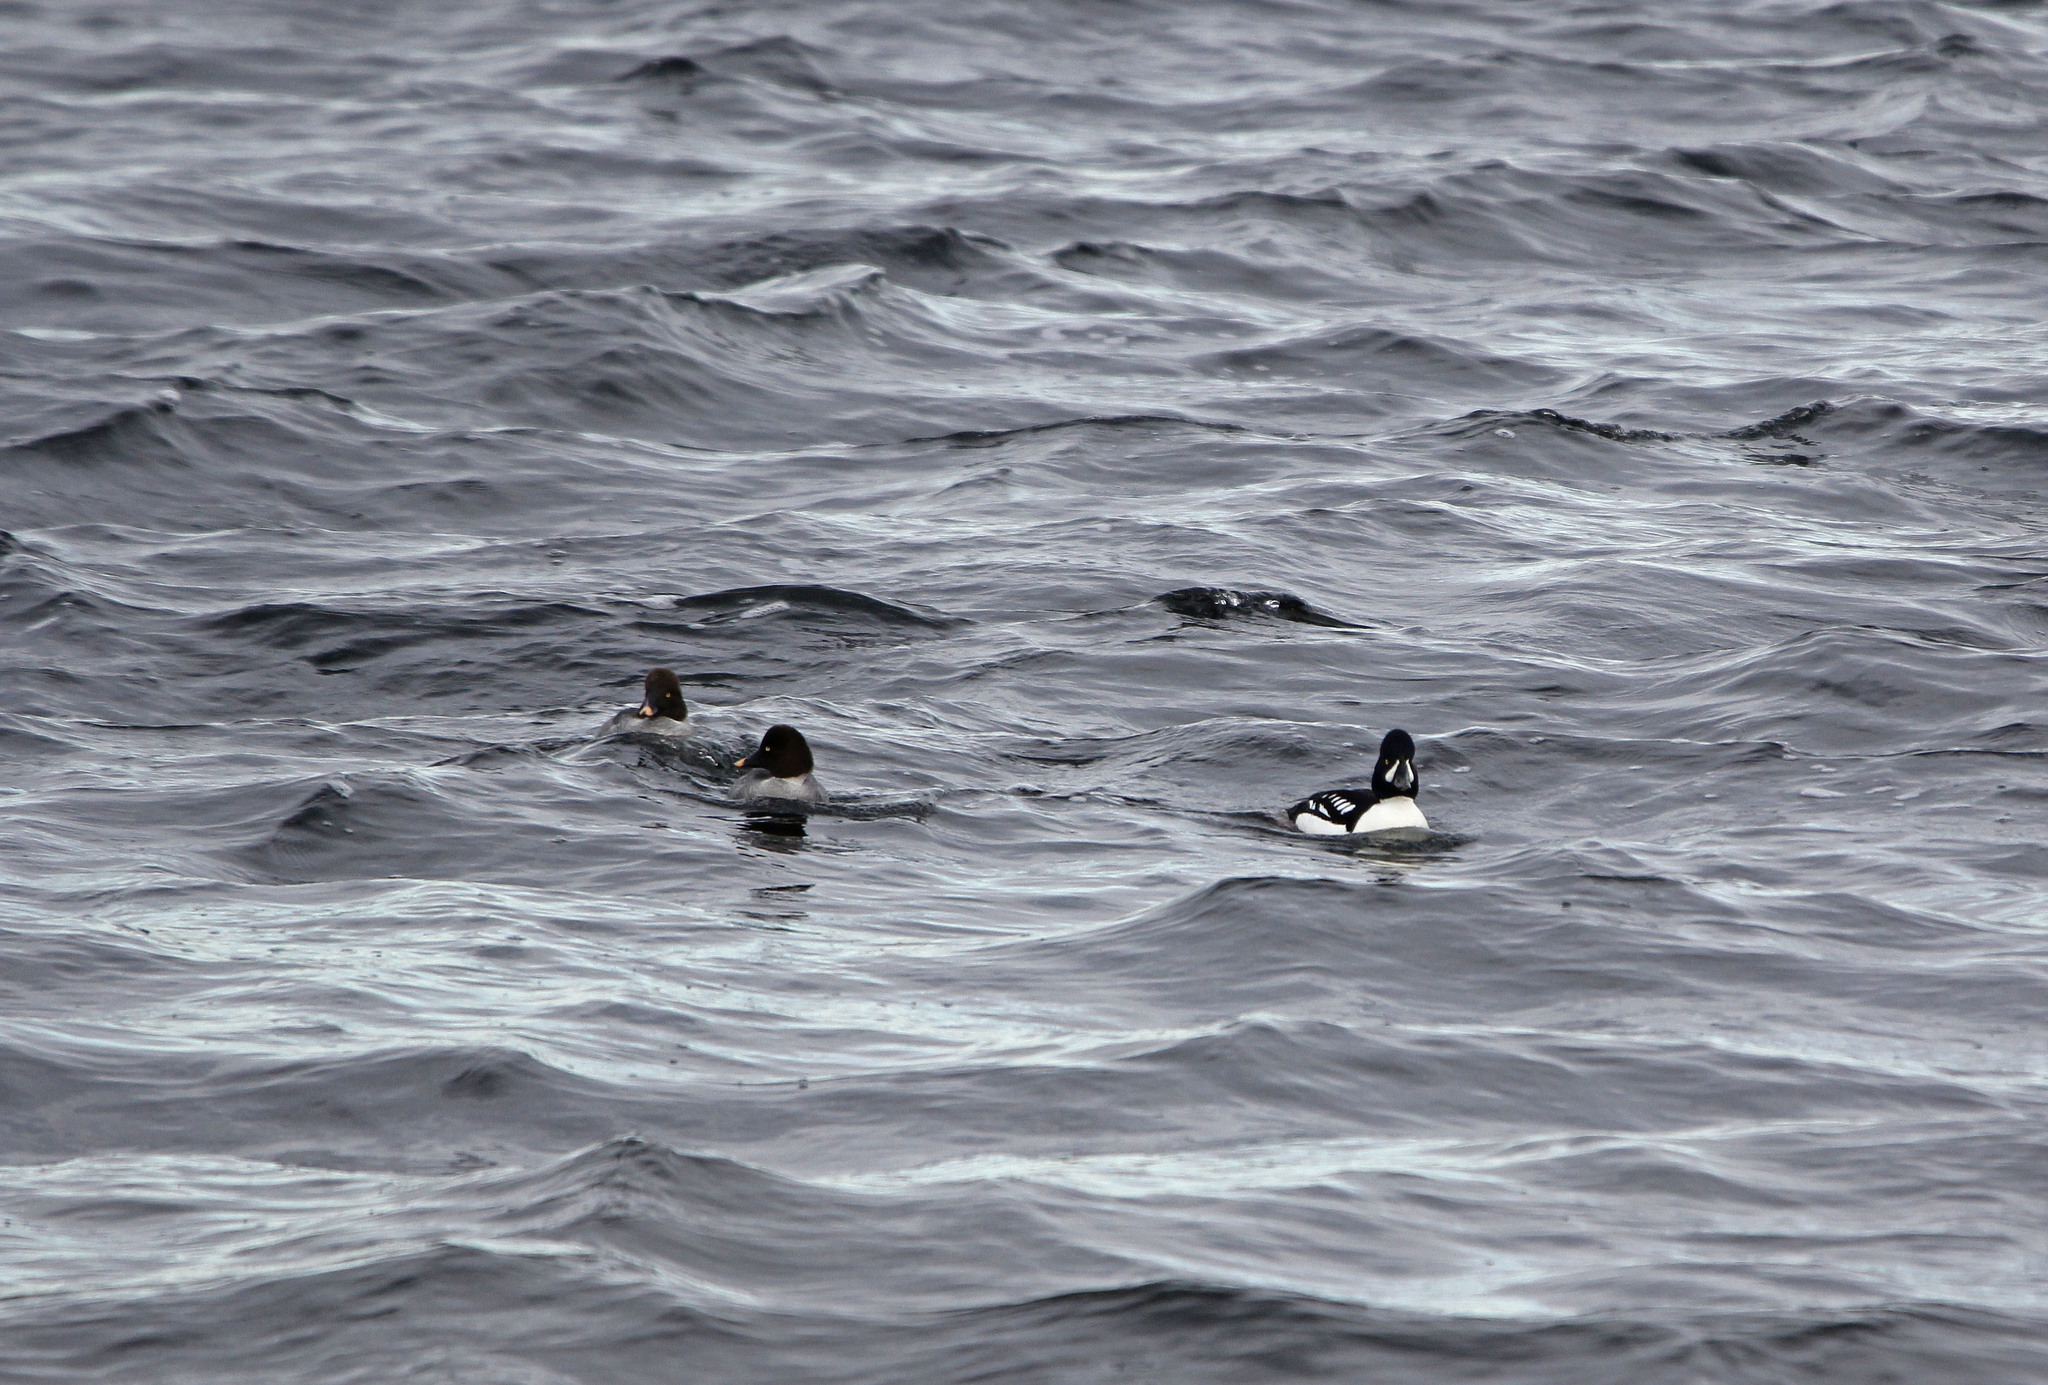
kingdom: Animalia
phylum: Chordata
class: Aves
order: Anseriformes
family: Anatidae
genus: Bucephala
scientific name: Bucephala islandica
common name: Barrow's goldeneye
